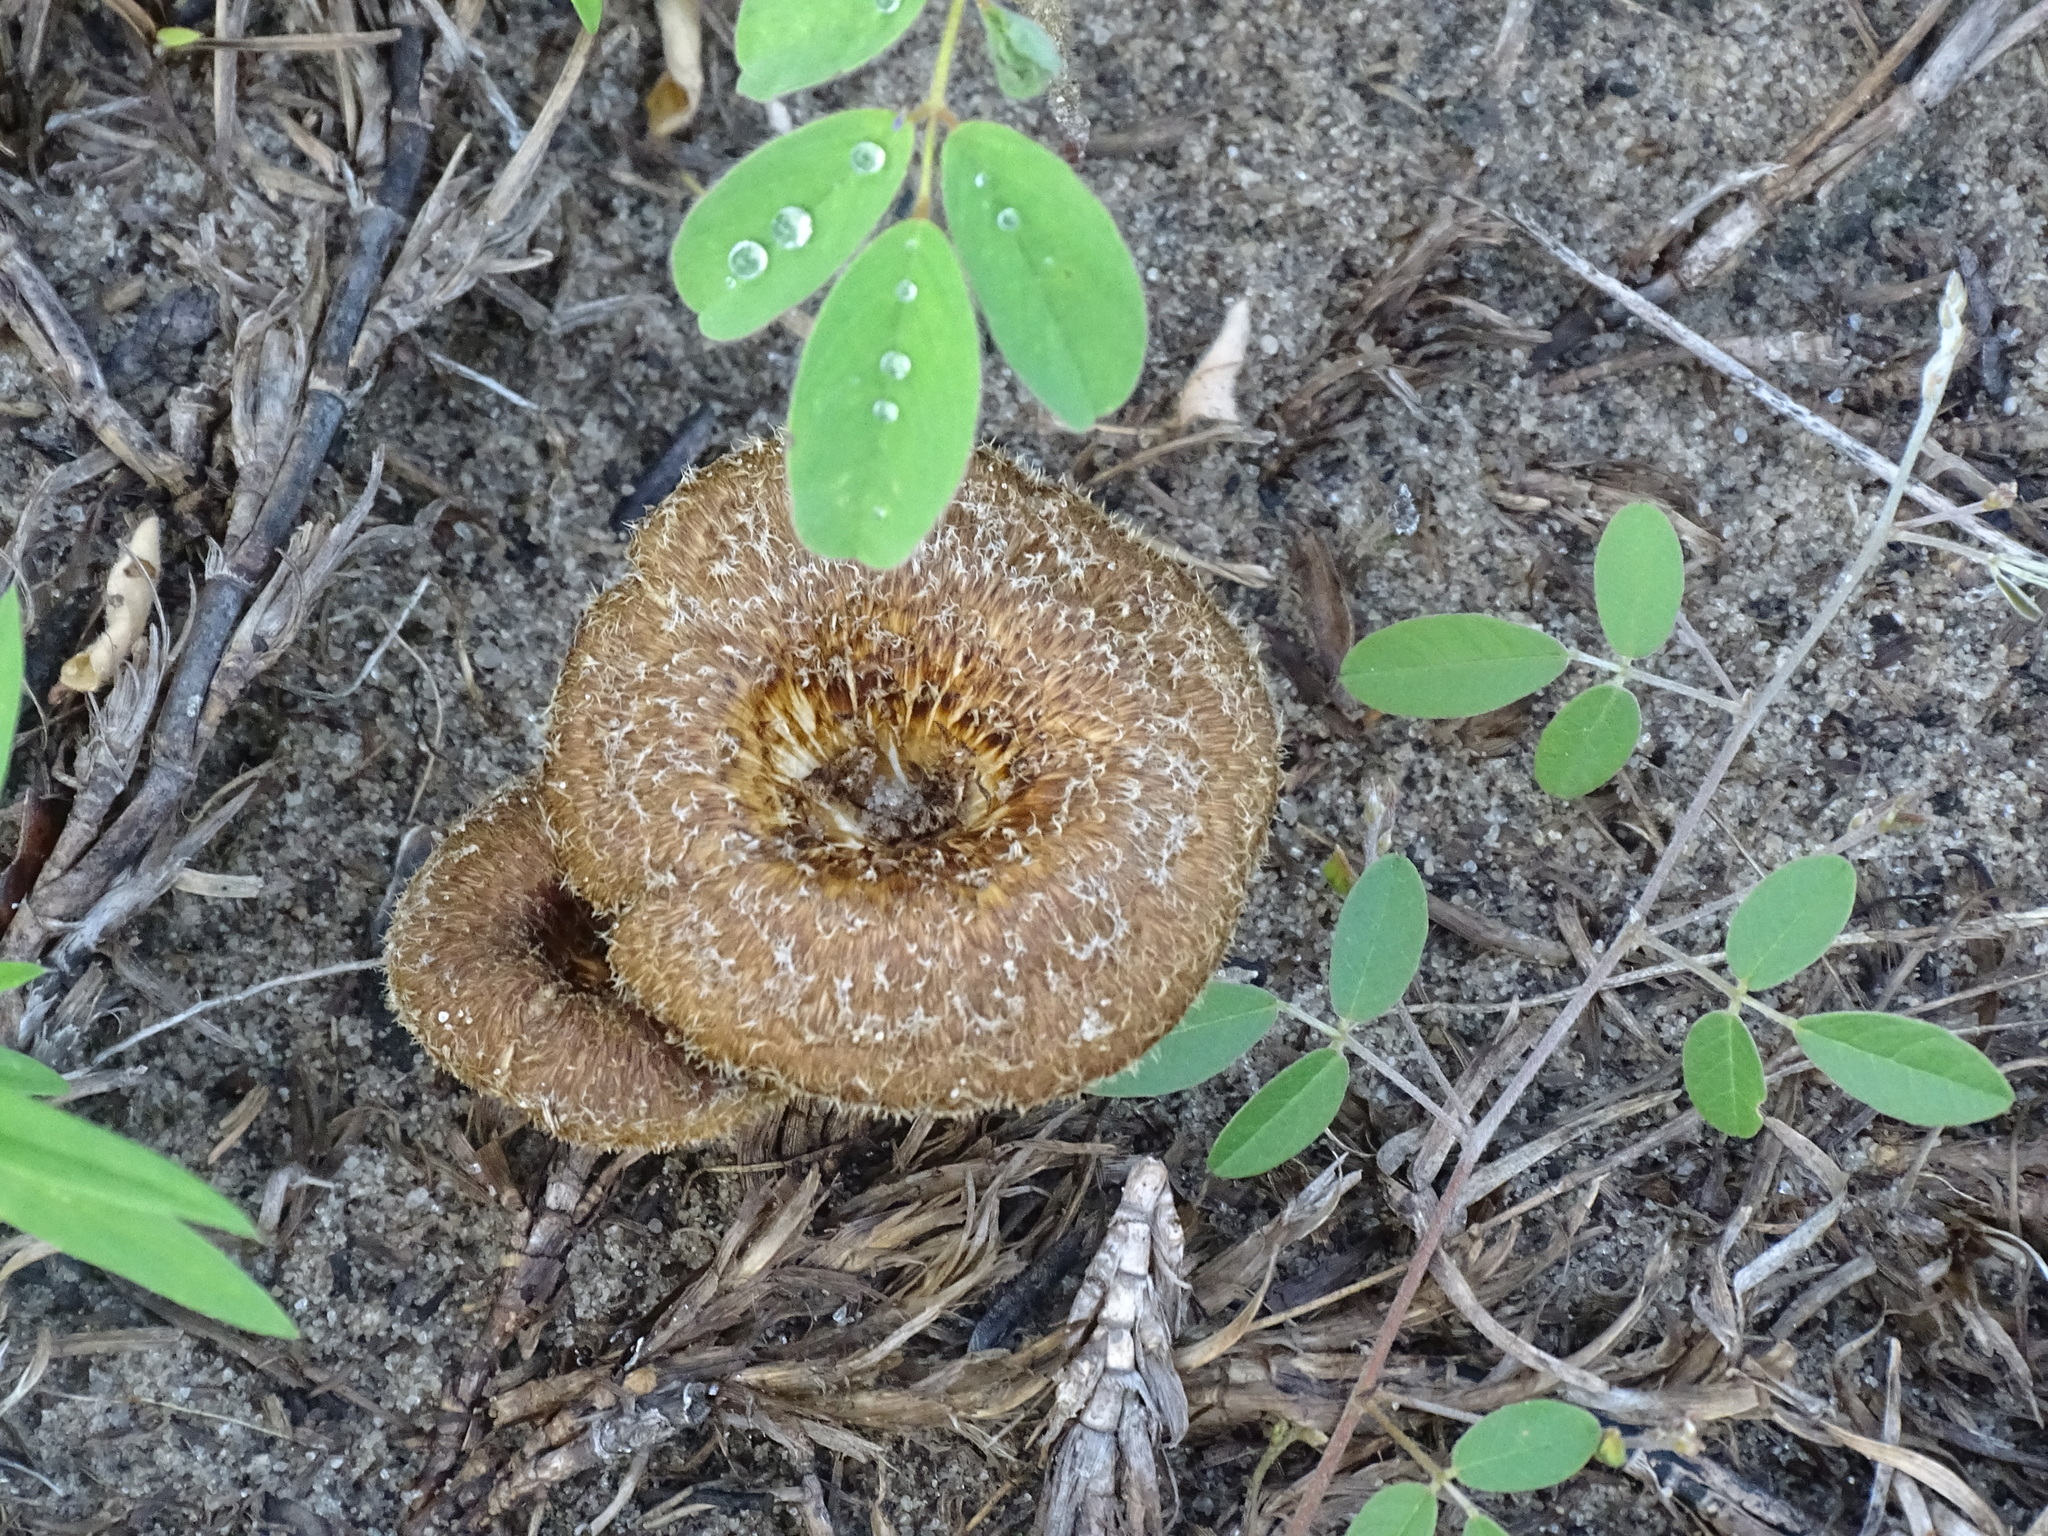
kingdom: Fungi
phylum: Basidiomycota
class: Agaricomycetes
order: Polyporales
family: Polyporaceae
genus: Lentinus
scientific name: Lentinus crinitus
